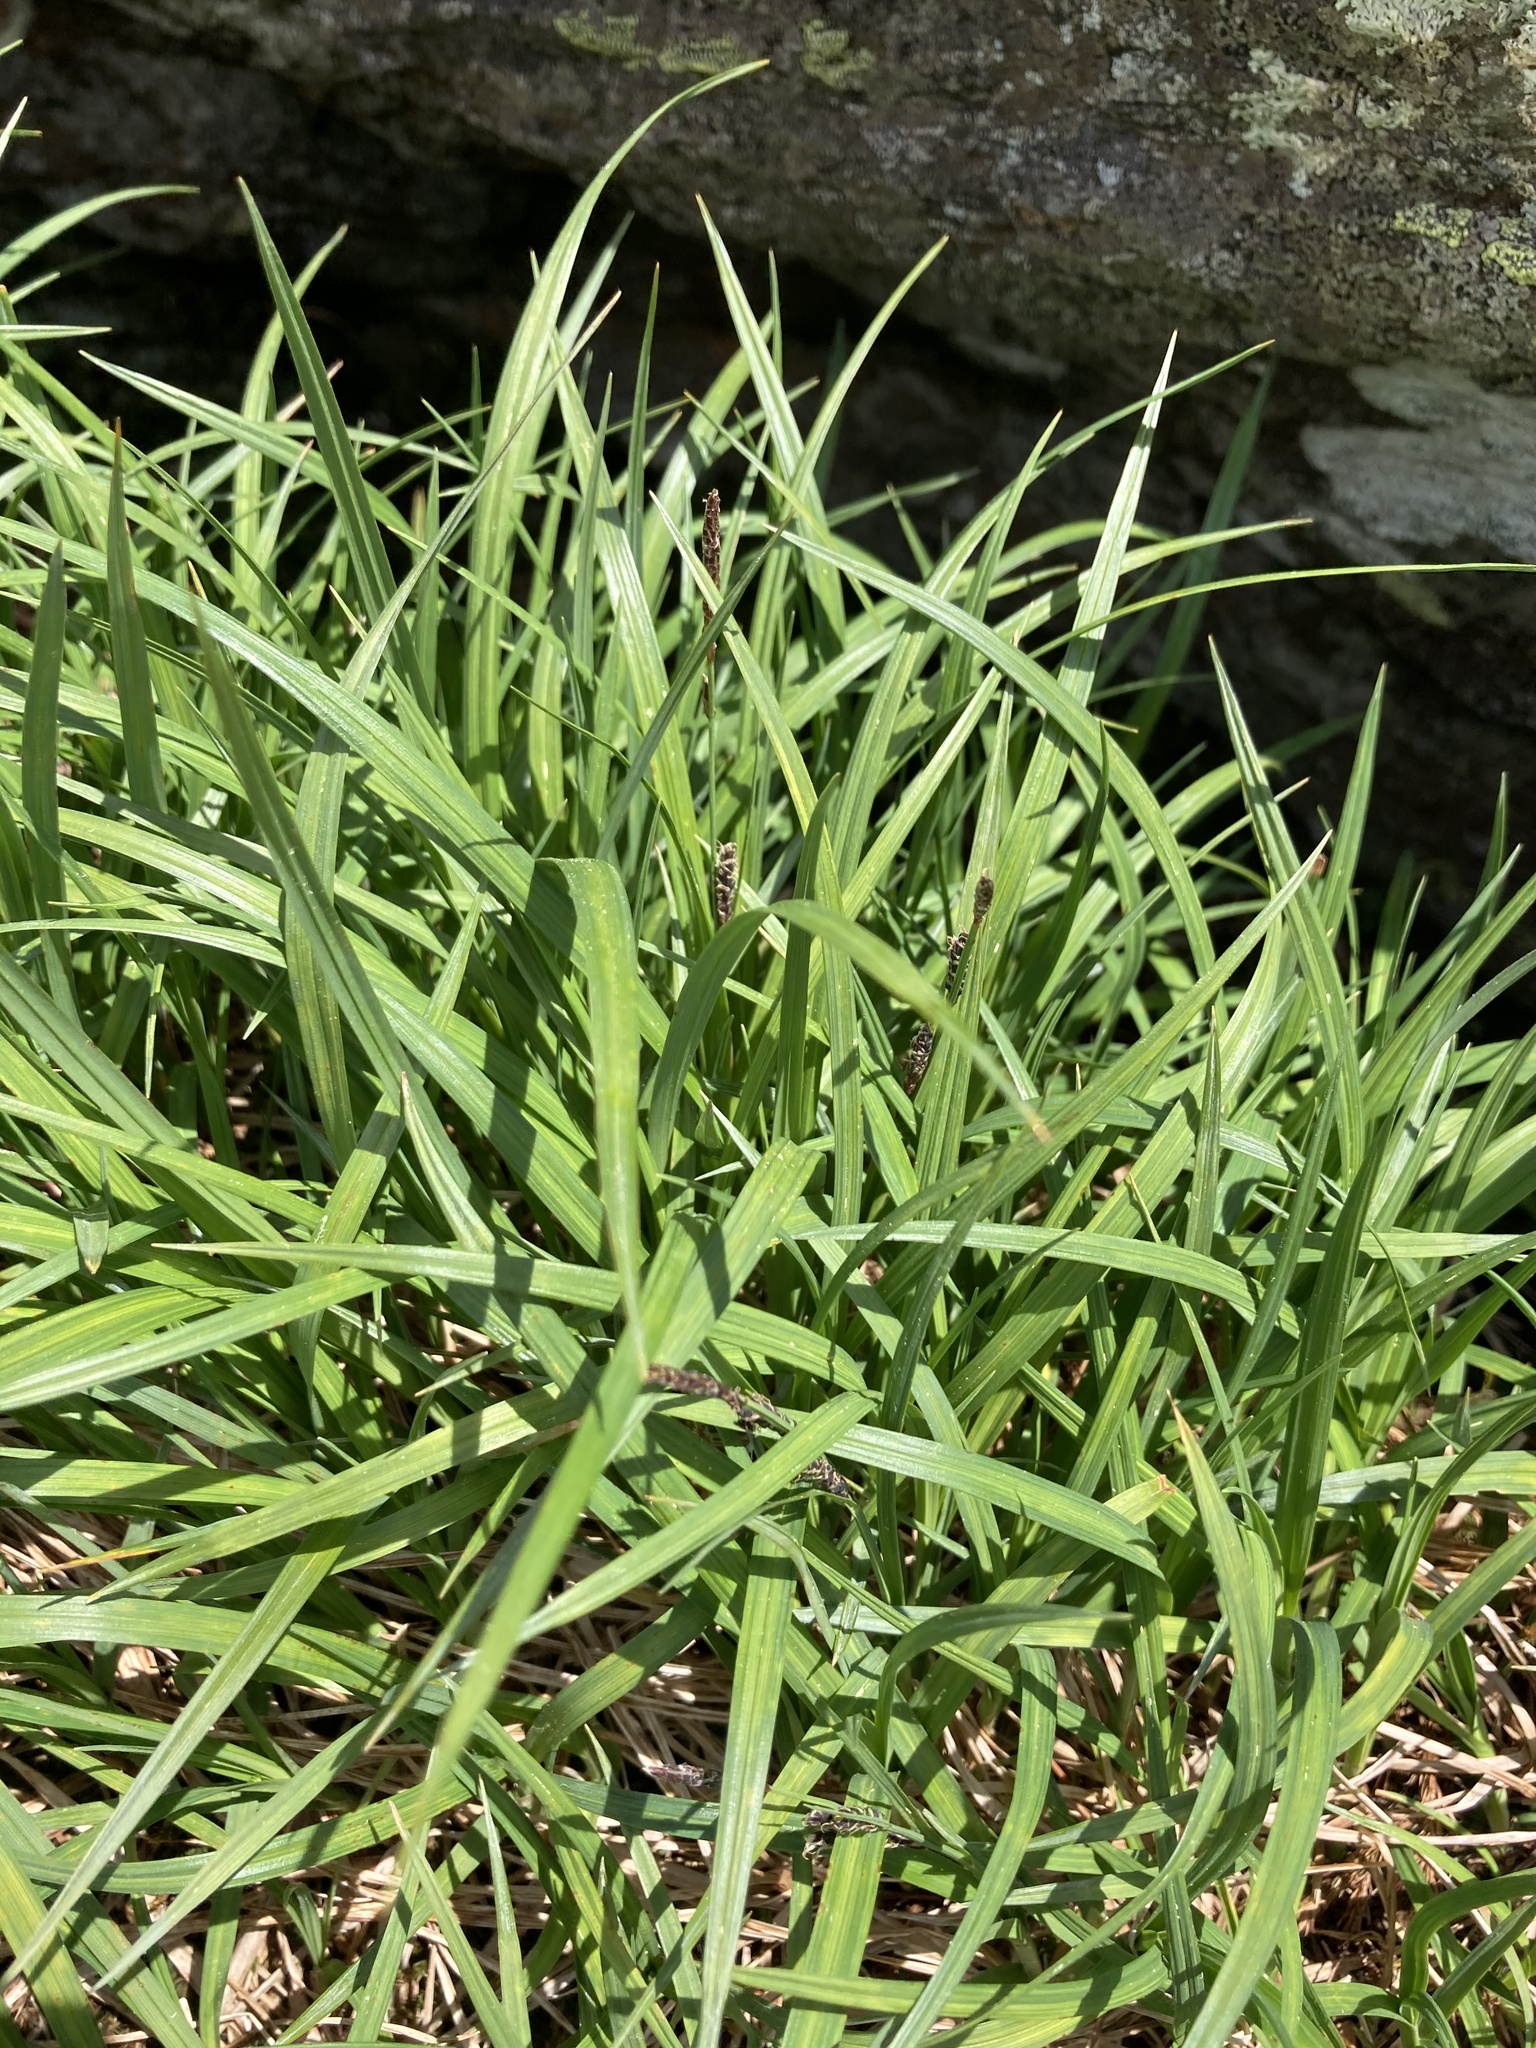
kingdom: Plantae
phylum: Tracheophyta
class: Liliopsida
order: Poales
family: Cyperaceae
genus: Carex
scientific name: Carex bigelowii
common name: Stiff sedge
